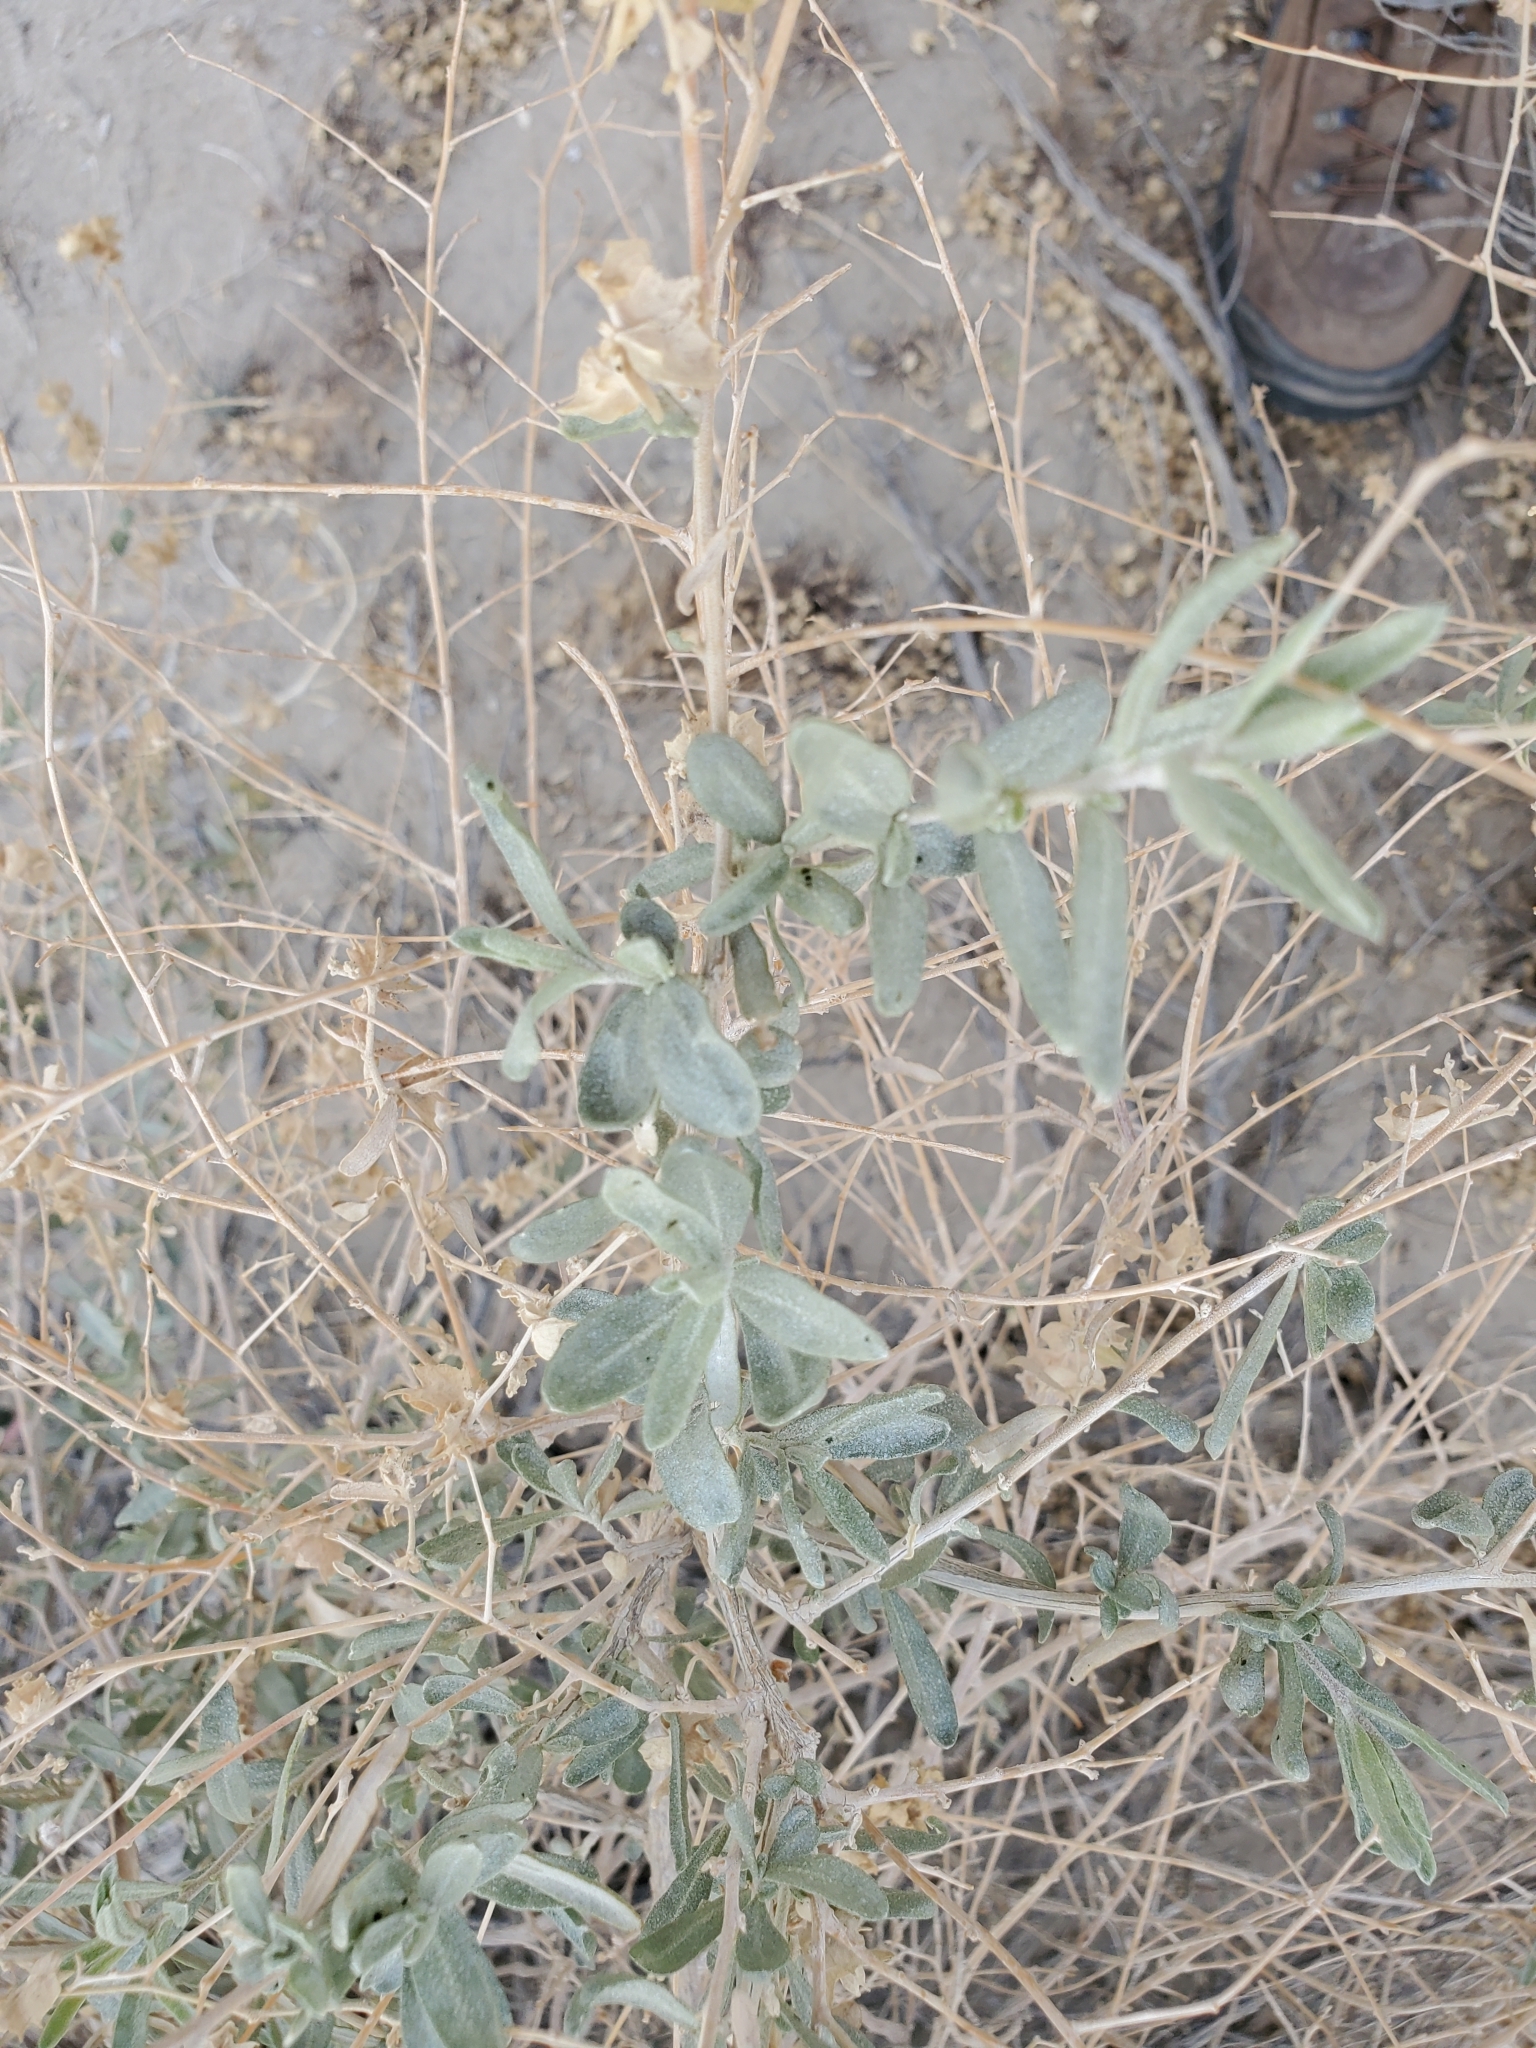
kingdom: Plantae
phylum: Tracheophyta
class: Magnoliopsida
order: Caryophyllales
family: Amaranthaceae
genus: Atriplex
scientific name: Atriplex canescens
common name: Four-wing saltbush
